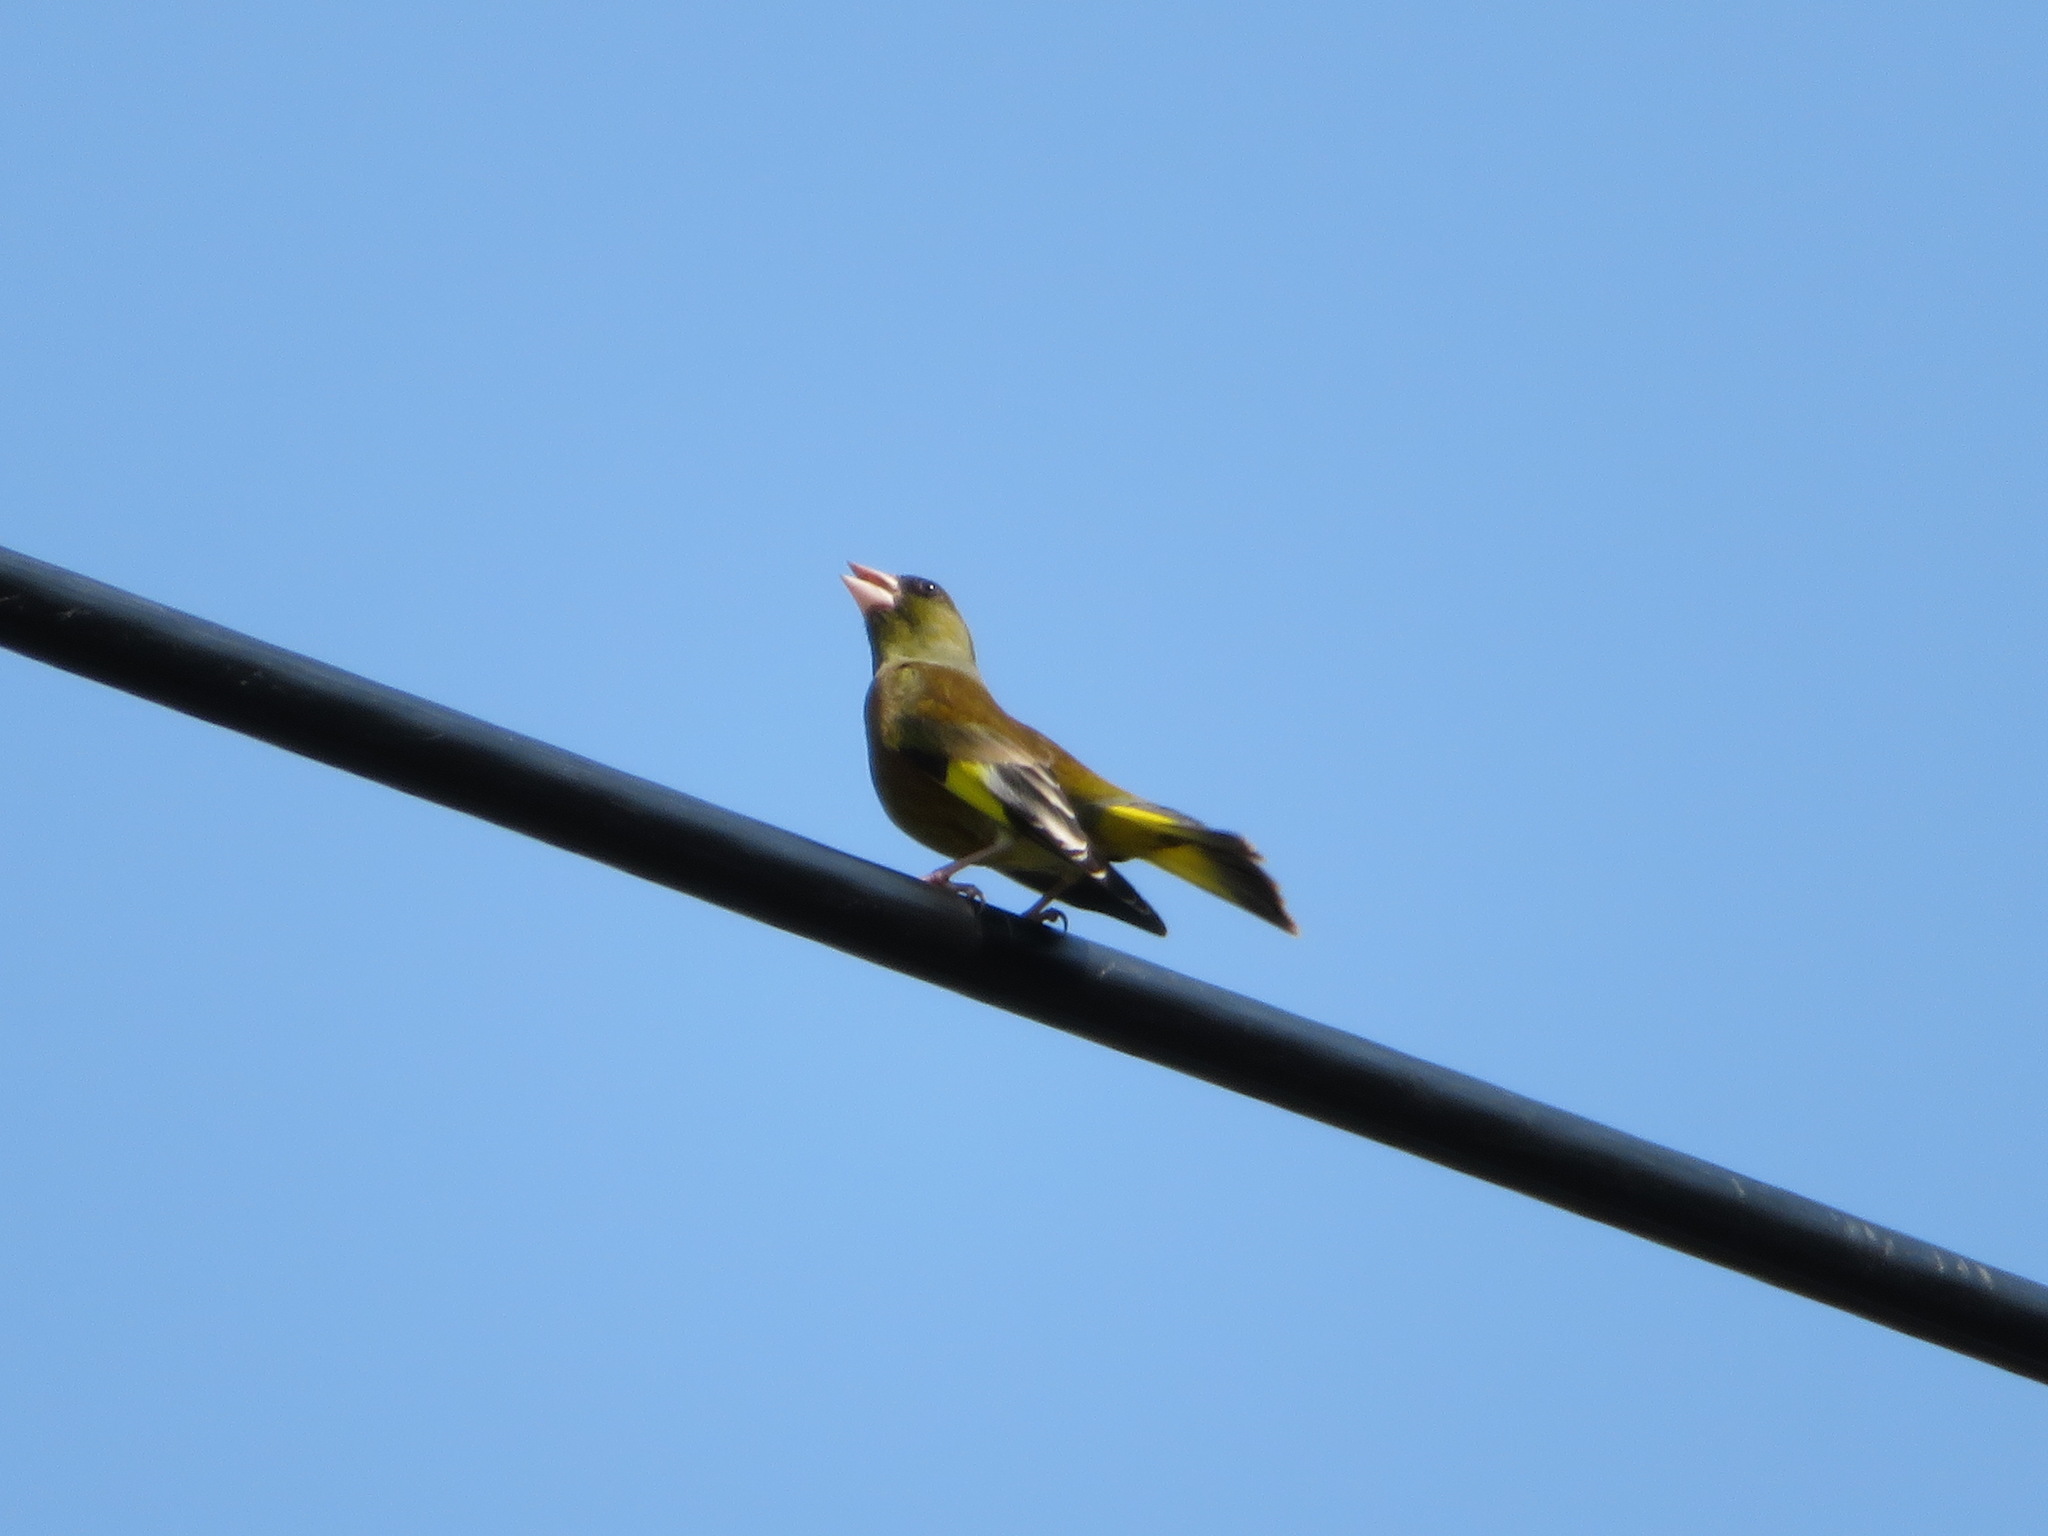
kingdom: Plantae
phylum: Tracheophyta
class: Liliopsida
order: Poales
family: Poaceae
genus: Chloris
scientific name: Chloris sinica
